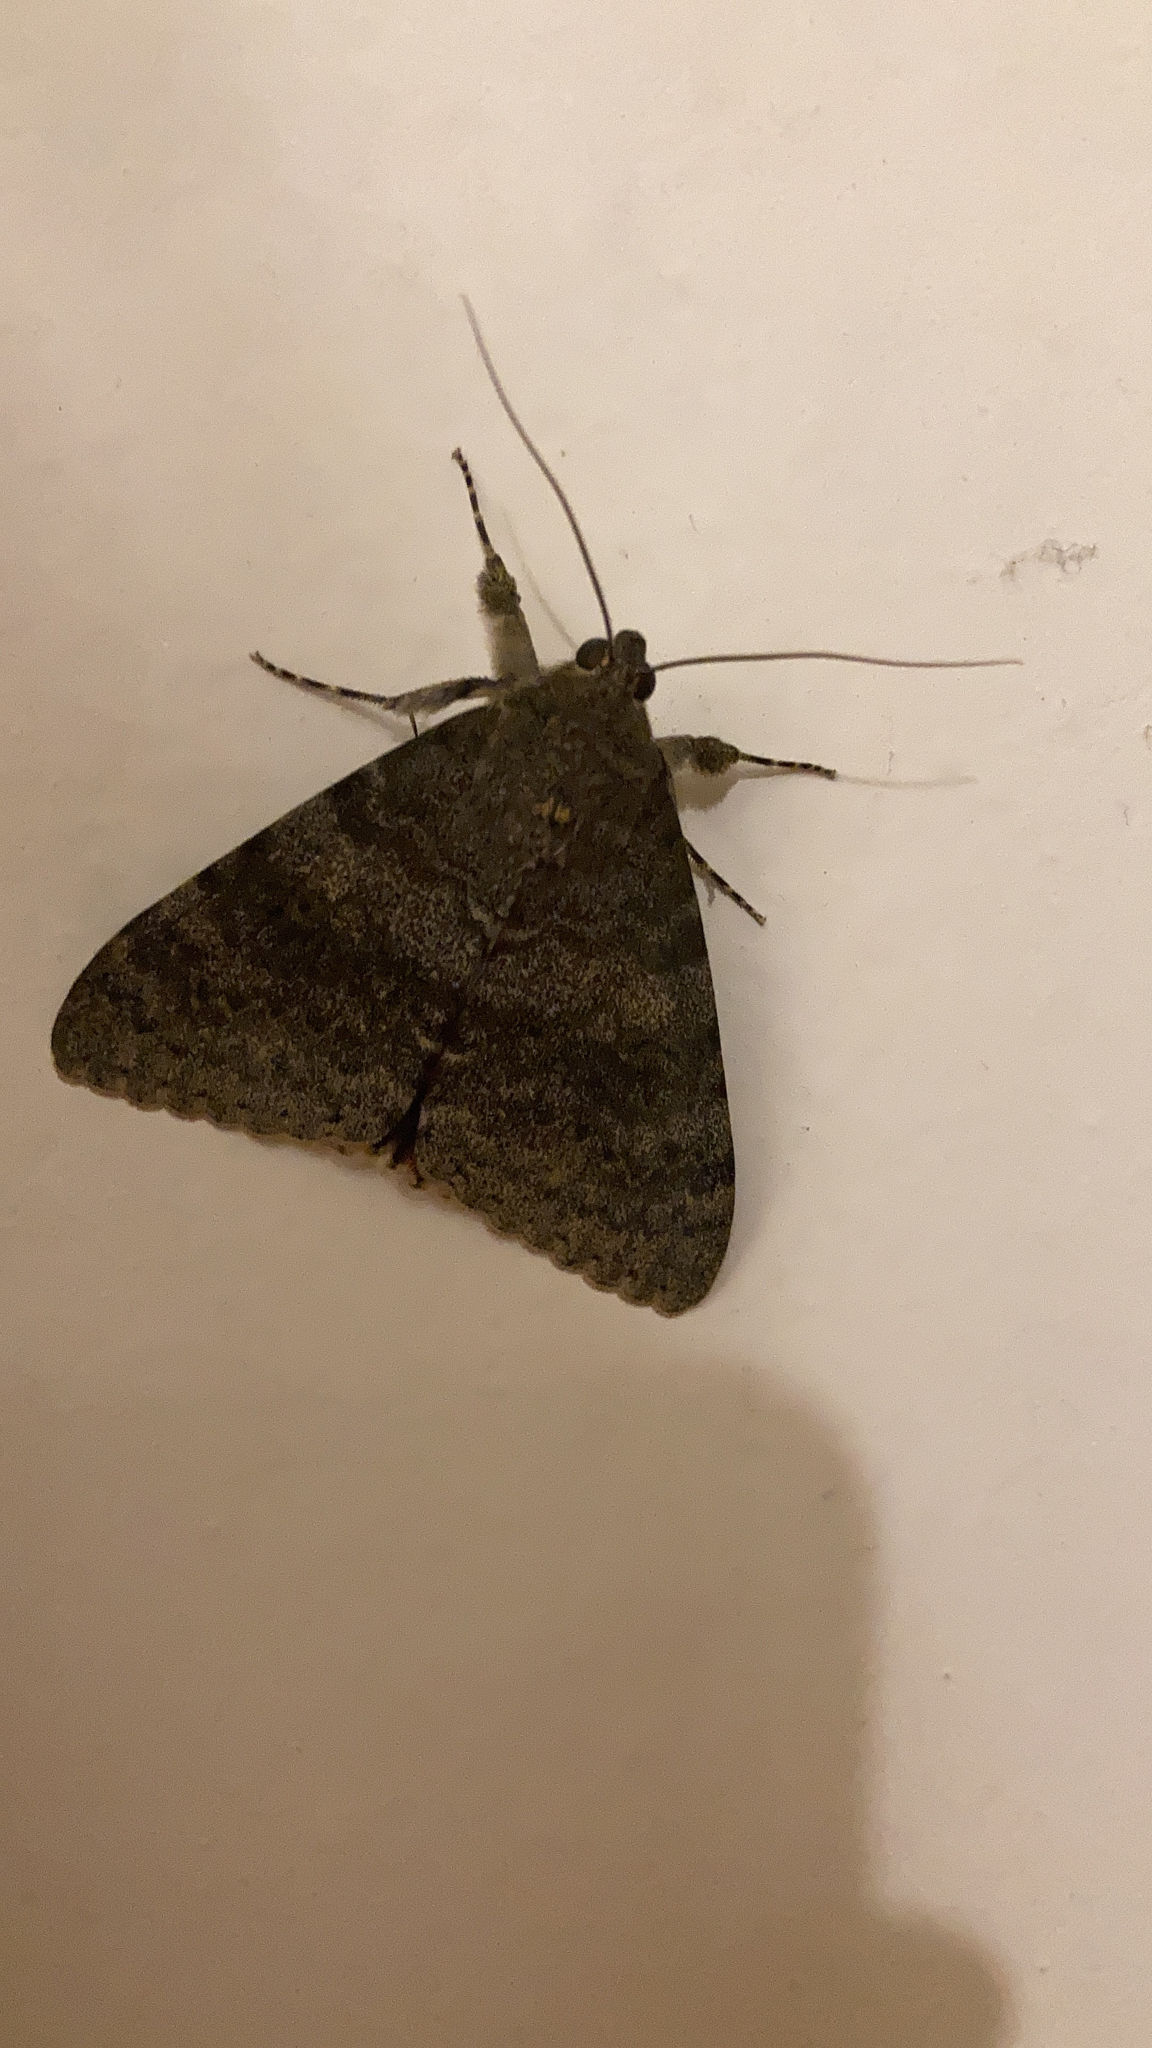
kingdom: Animalia
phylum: Arthropoda
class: Insecta
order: Lepidoptera
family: Erebidae
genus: Catocala
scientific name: Catocala elocata
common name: French red underwing
